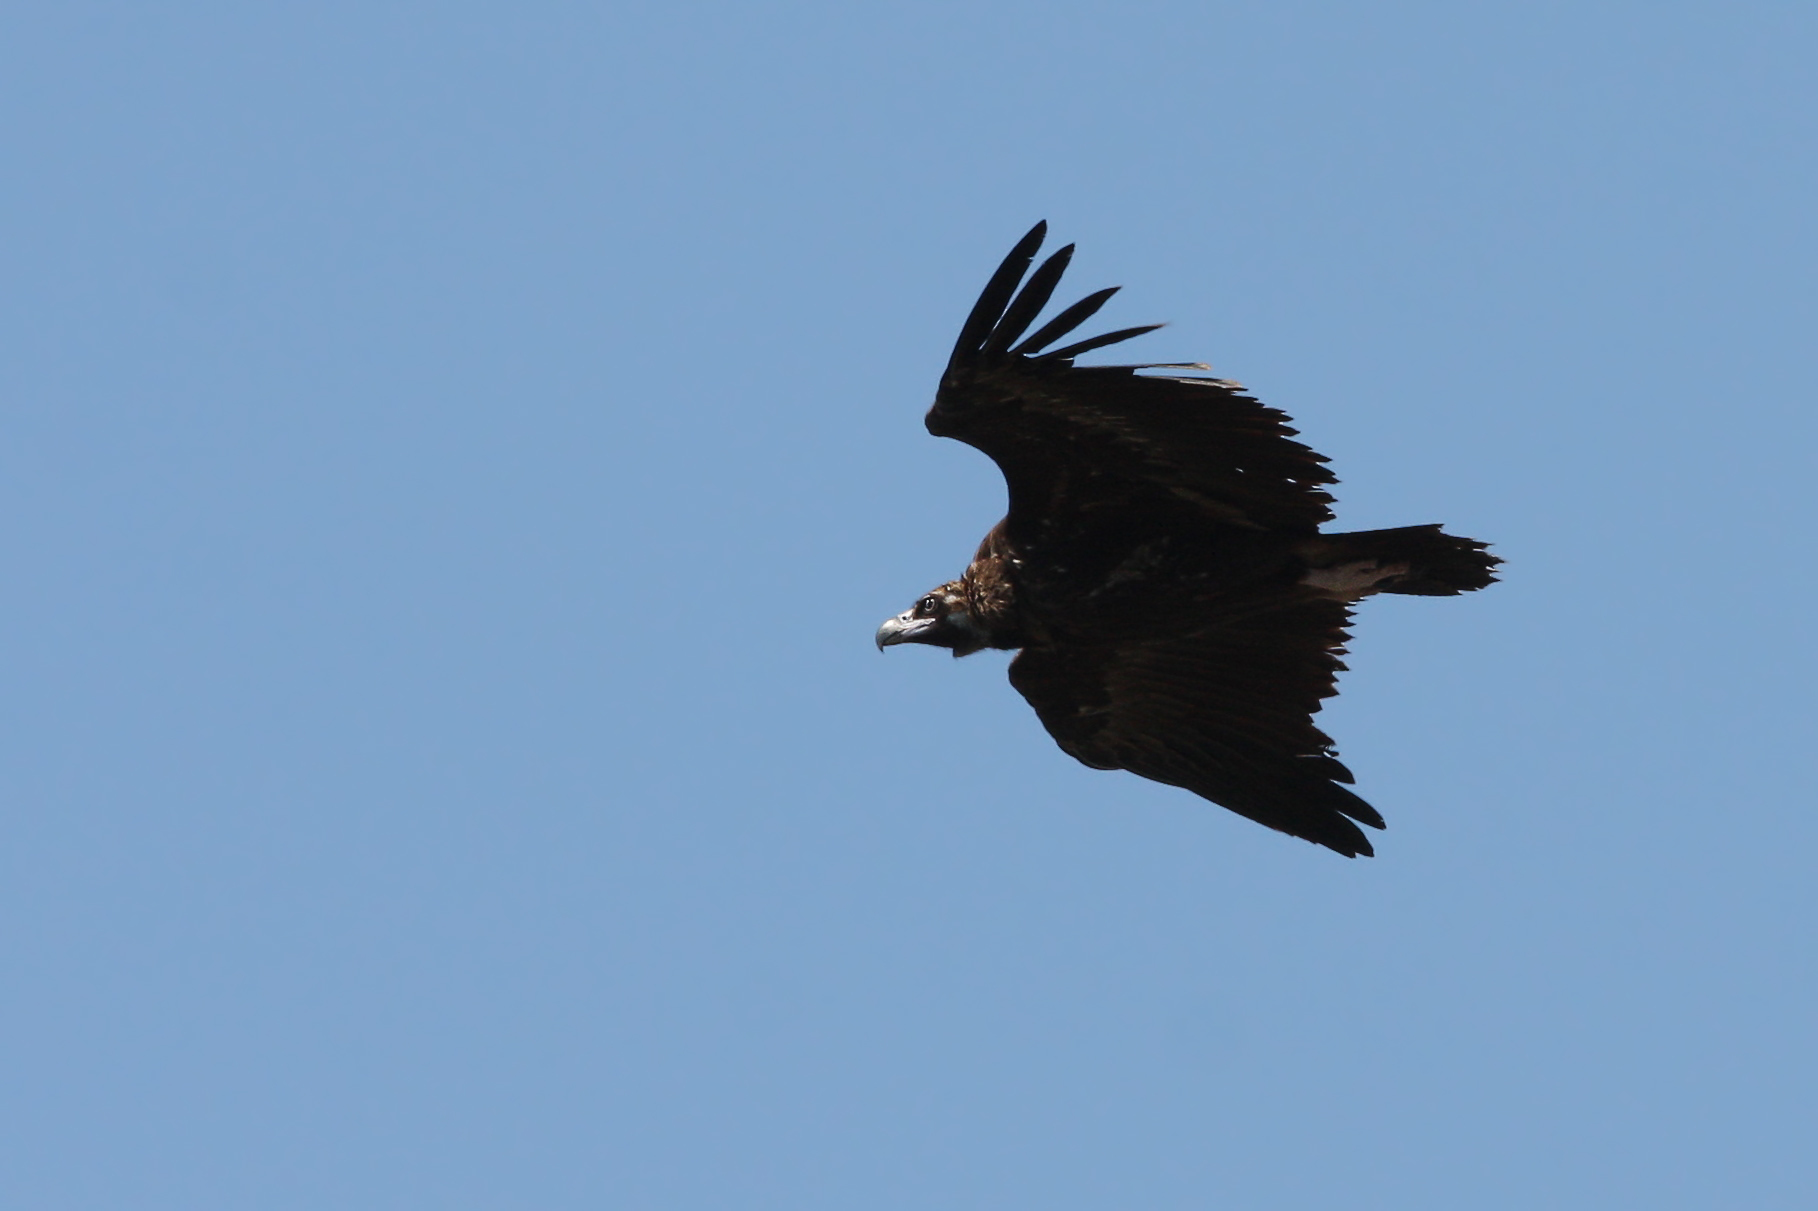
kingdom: Animalia
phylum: Chordata
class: Aves
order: Accipitriformes
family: Accipitridae
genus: Aegypius
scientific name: Aegypius monachus
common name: Cinereous vulture
